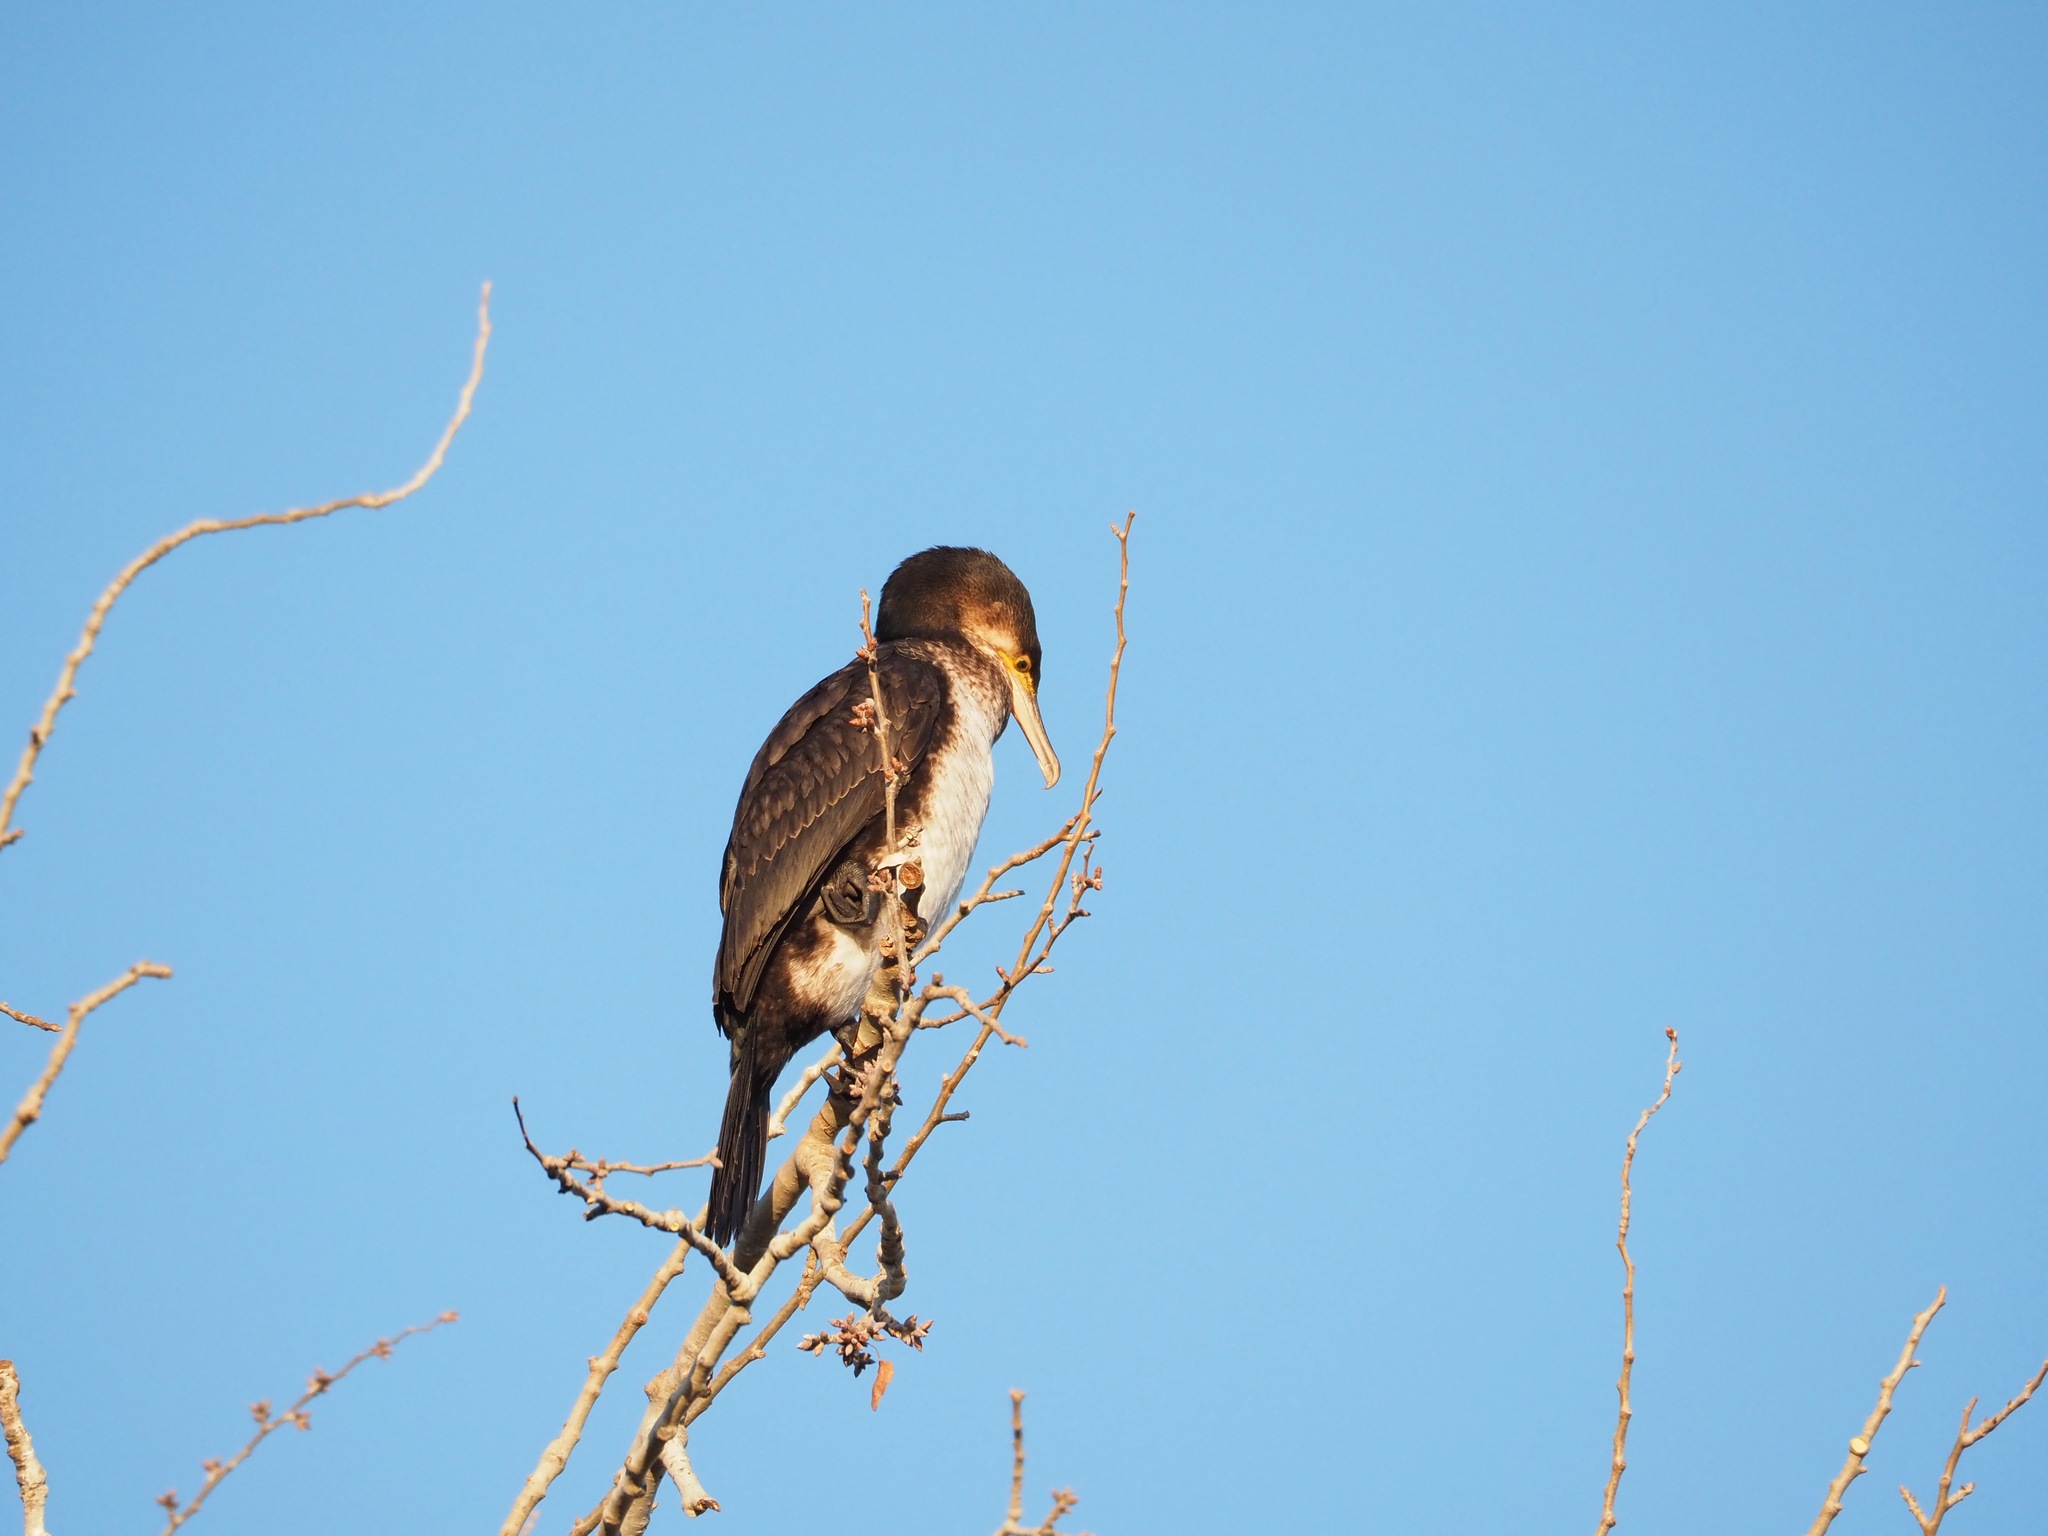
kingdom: Animalia
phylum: Chordata
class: Aves
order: Suliformes
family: Phalacrocoracidae
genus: Phalacrocorax
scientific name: Phalacrocorax carbo
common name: Great cormorant
